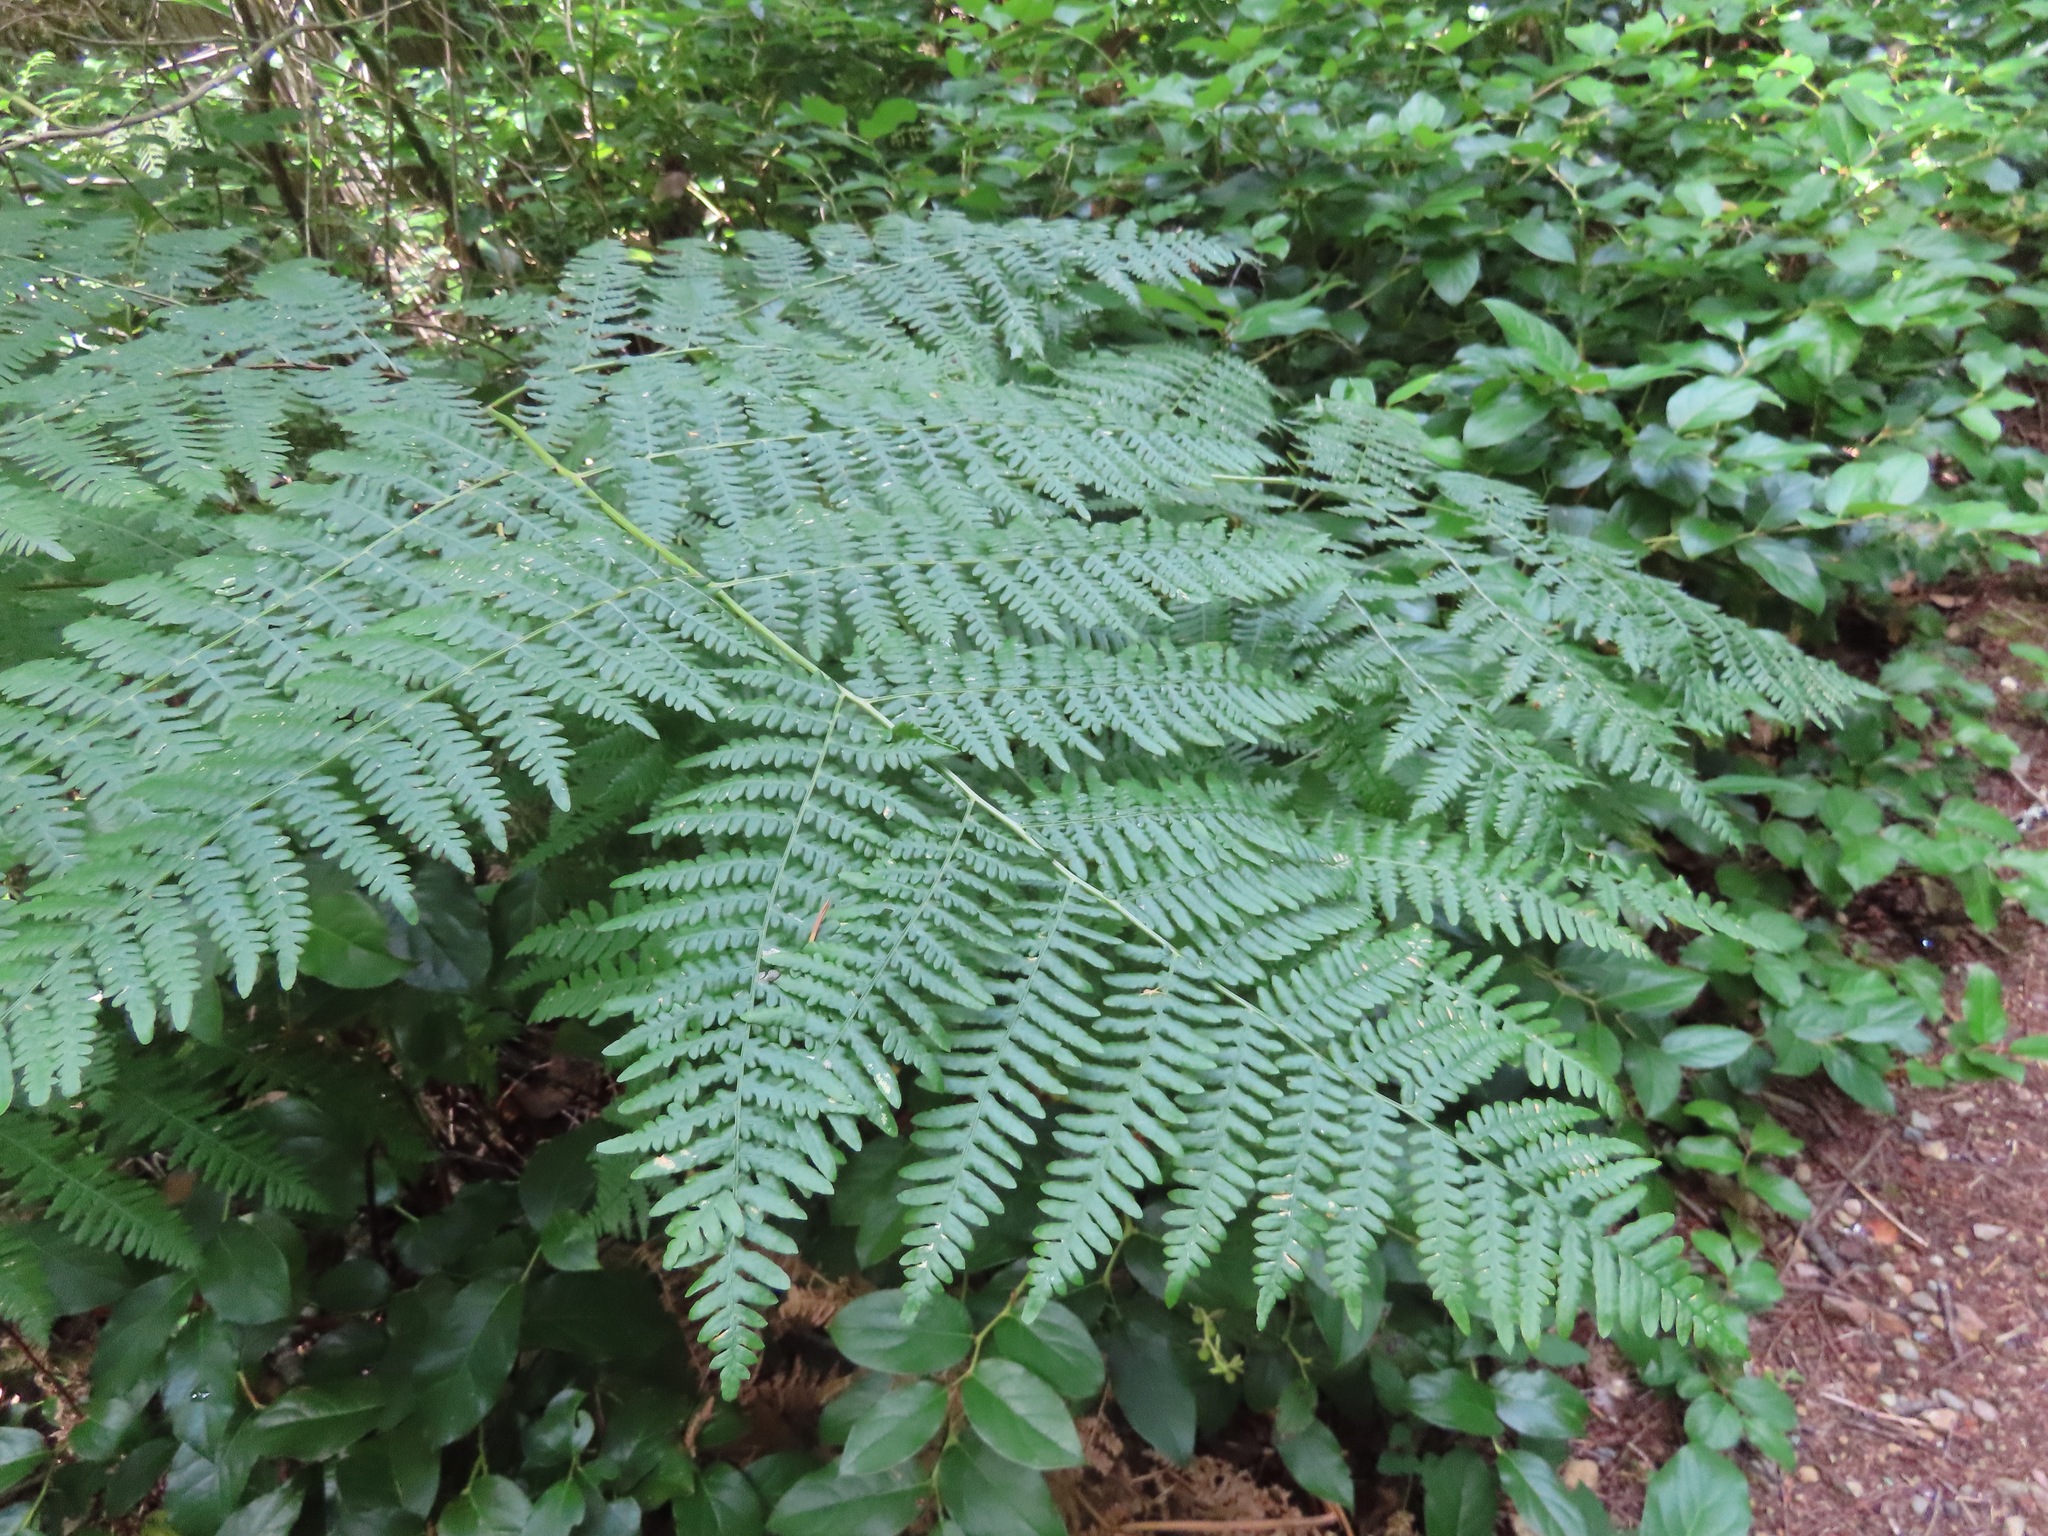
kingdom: Plantae
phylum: Tracheophyta
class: Polypodiopsida
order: Polypodiales
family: Dennstaedtiaceae
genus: Pteridium
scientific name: Pteridium aquilinum
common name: Bracken
